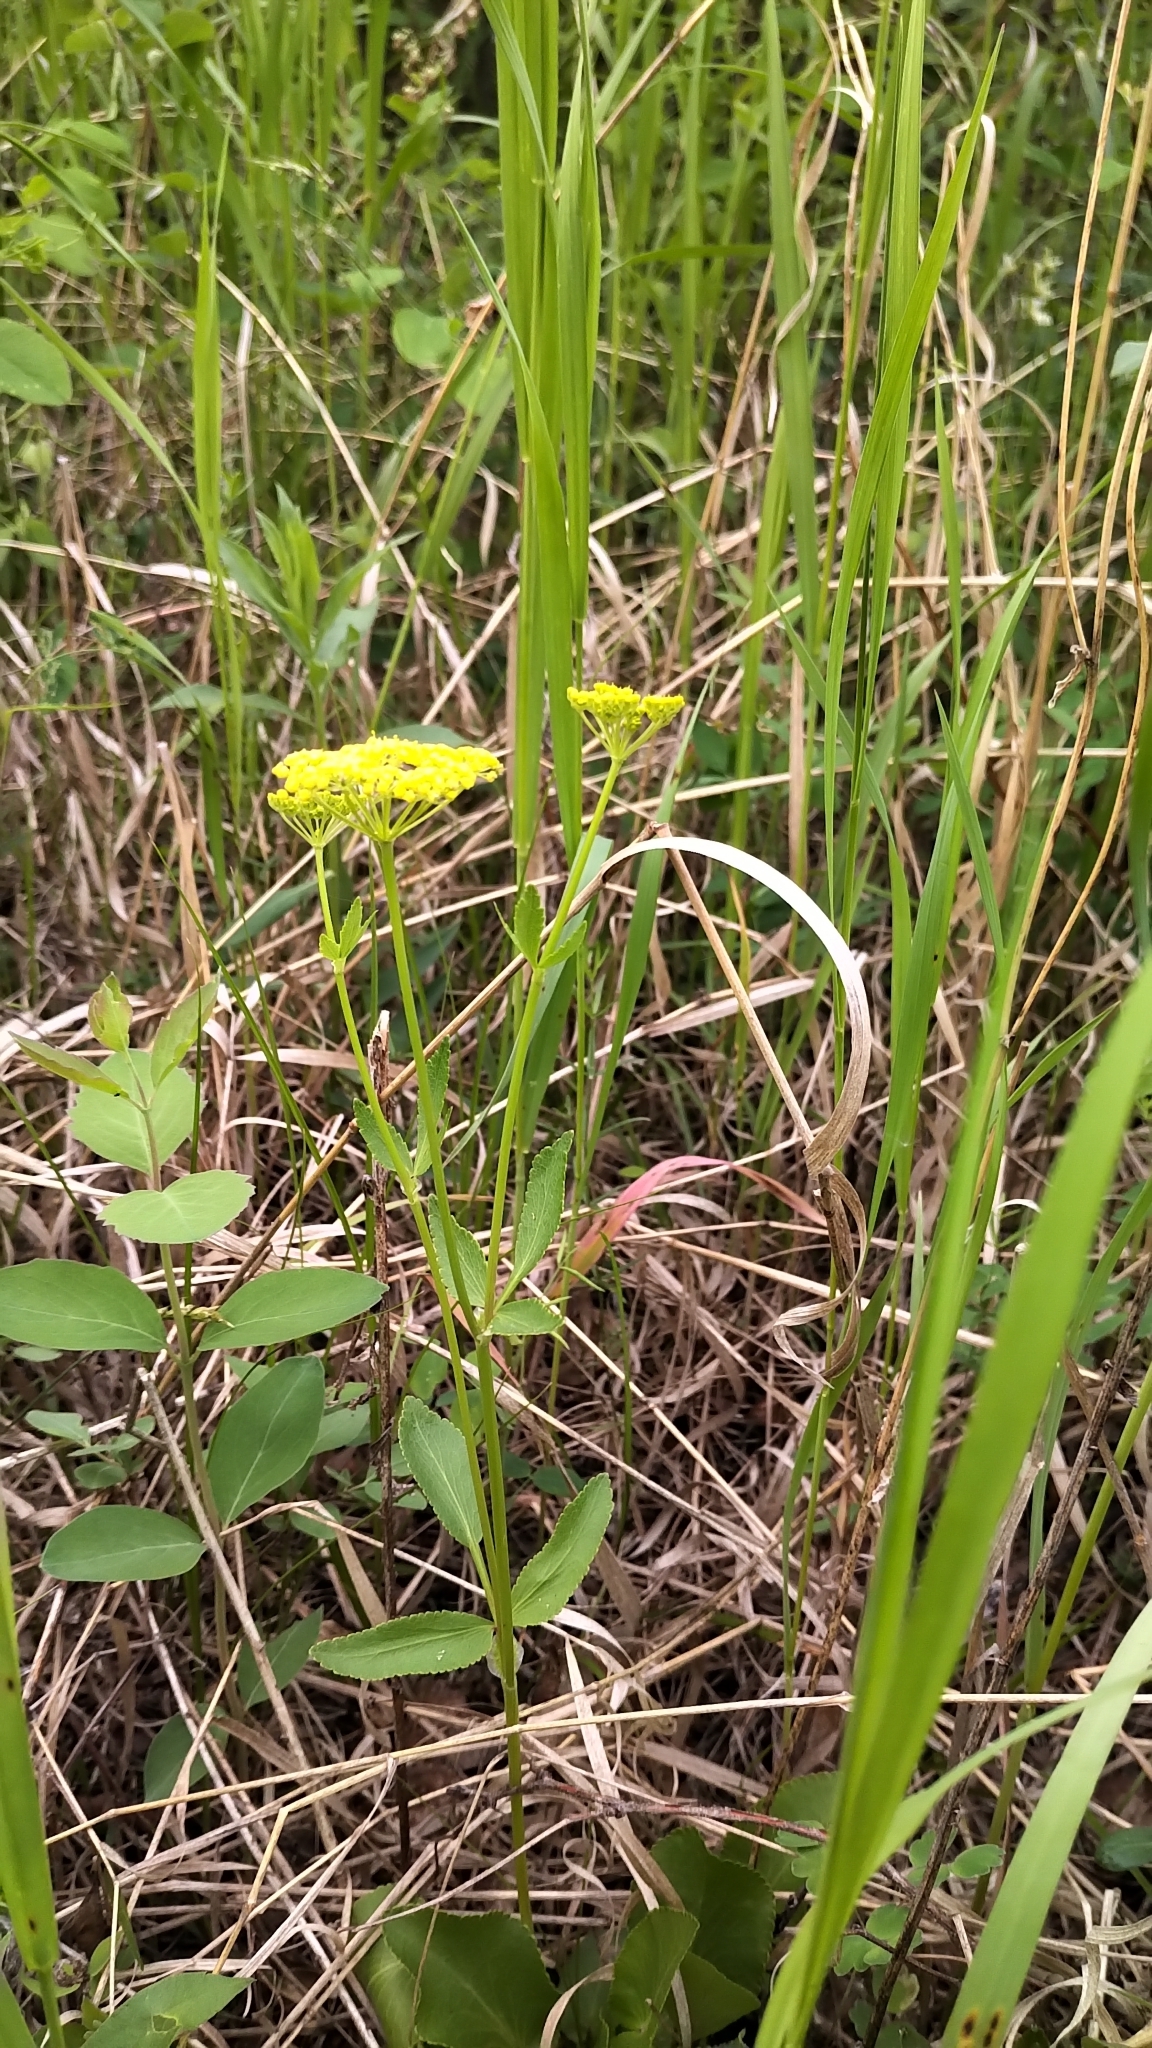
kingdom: Plantae
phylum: Tracheophyta
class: Magnoliopsida
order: Apiales
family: Apiaceae
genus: Zizia
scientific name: Zizia aptera
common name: Heart-leaved alexanders
